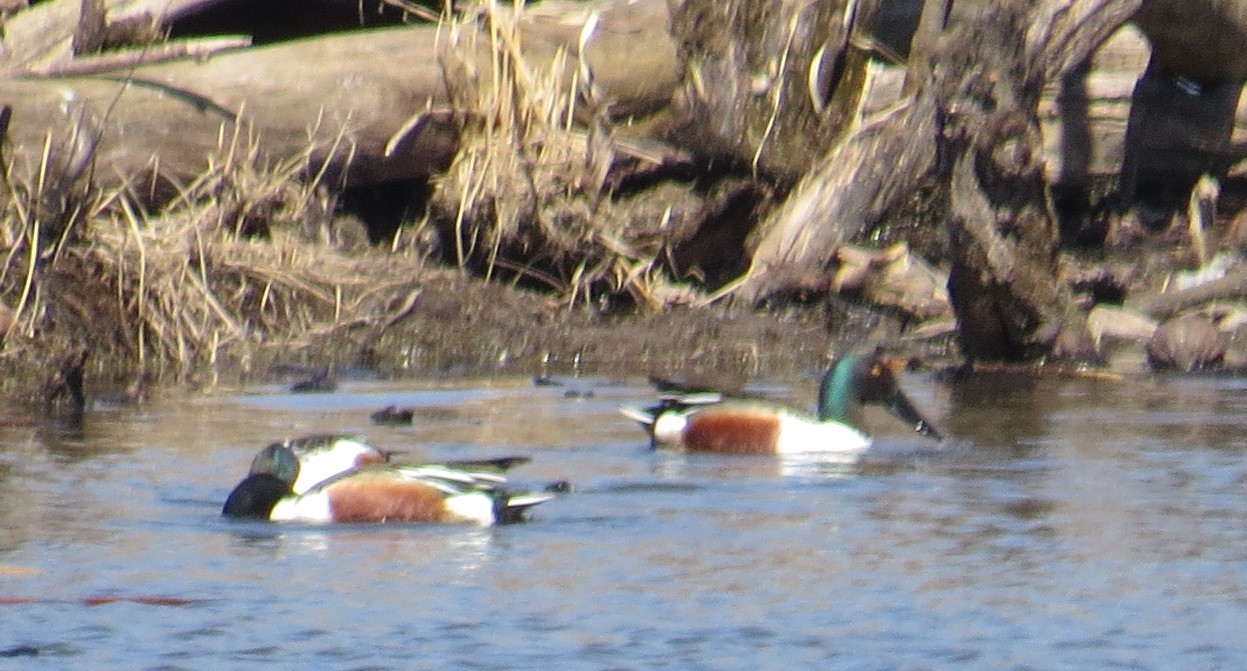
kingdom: Animalia
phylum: Chordata
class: Aves
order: Anseriformes
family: Anatidae
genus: Spatula
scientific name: Spatula clypeata
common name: Northern shoveler
